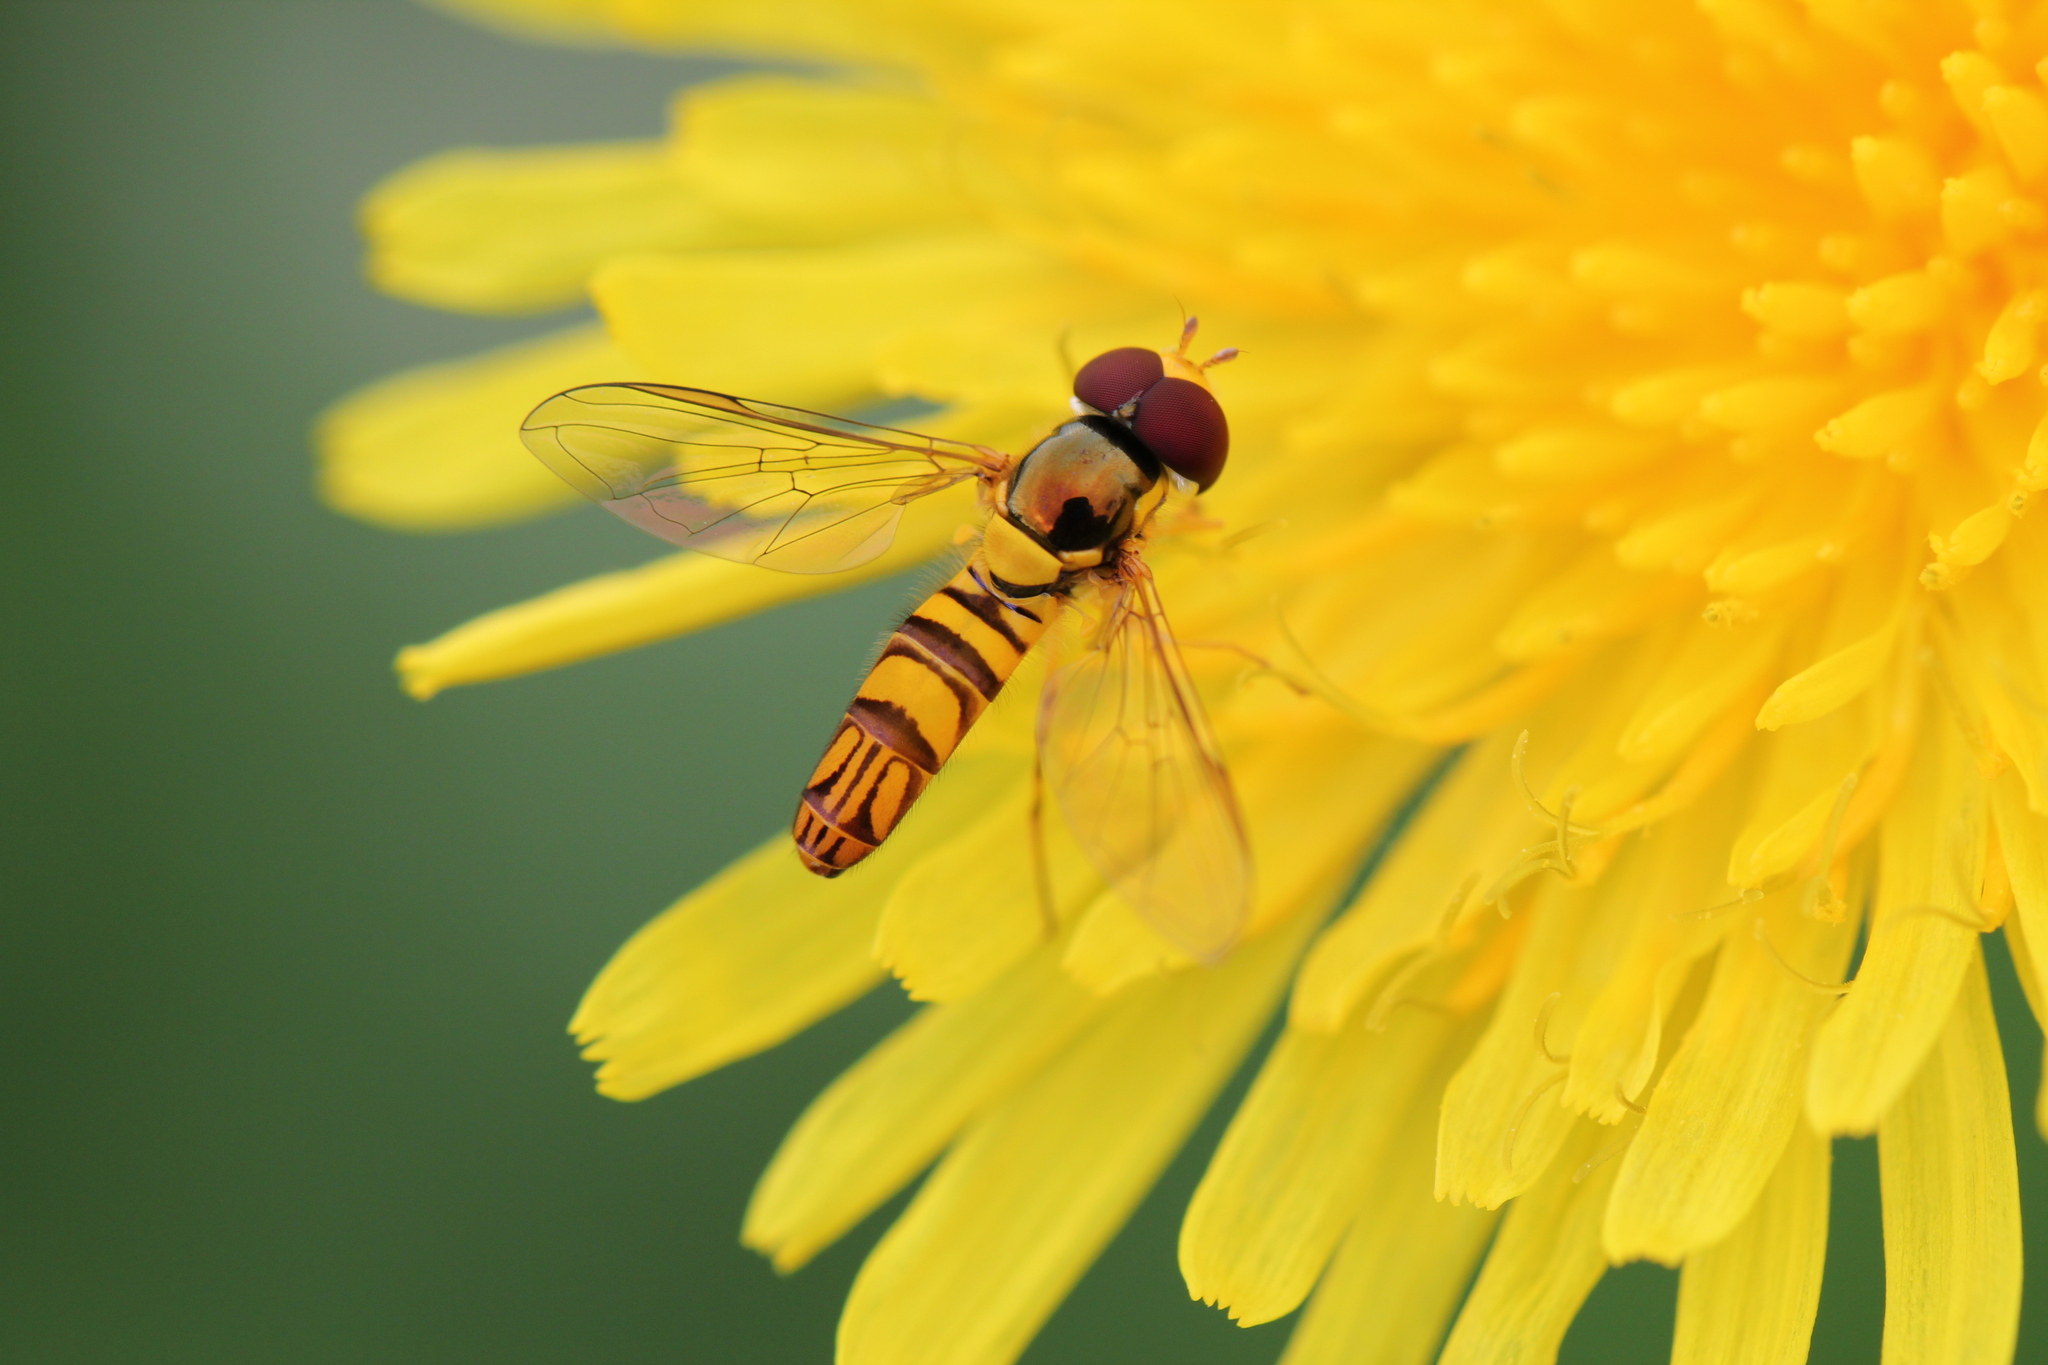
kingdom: Animalia
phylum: Arthropoda
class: Insecta
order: Diptera
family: Syrphidae
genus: Allograpta
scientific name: Allograpta obliqua
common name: Common oblique syrphid
